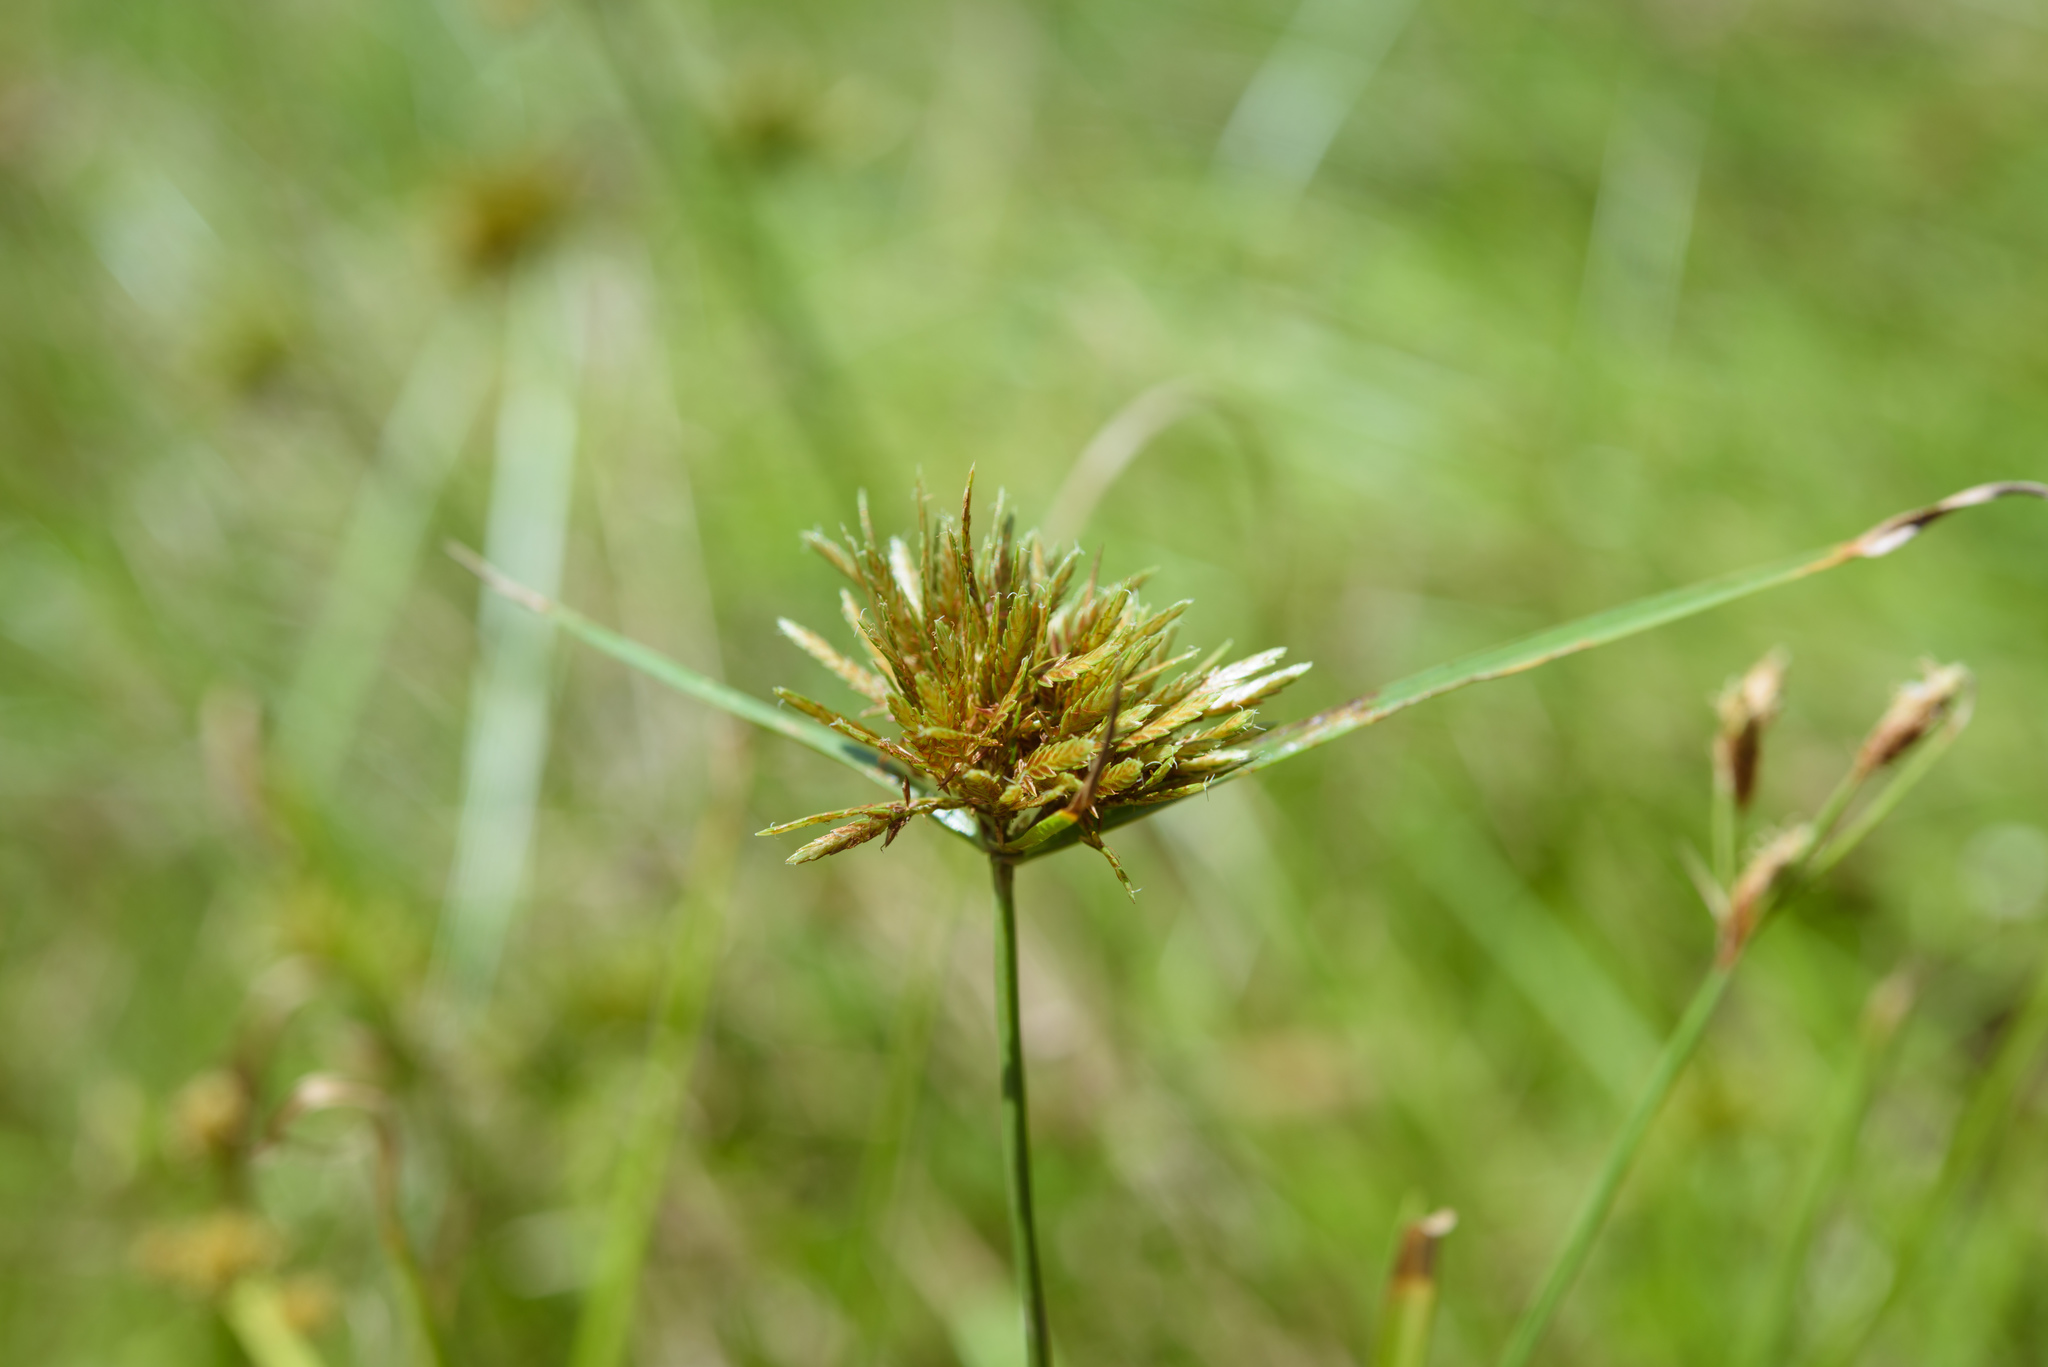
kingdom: Plantae
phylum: Tracheophyta
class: Liliopsida
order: Poales
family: Cyperaceae
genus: Cyperus
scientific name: Cyperus polystachyos
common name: Bunchy flat sedge
